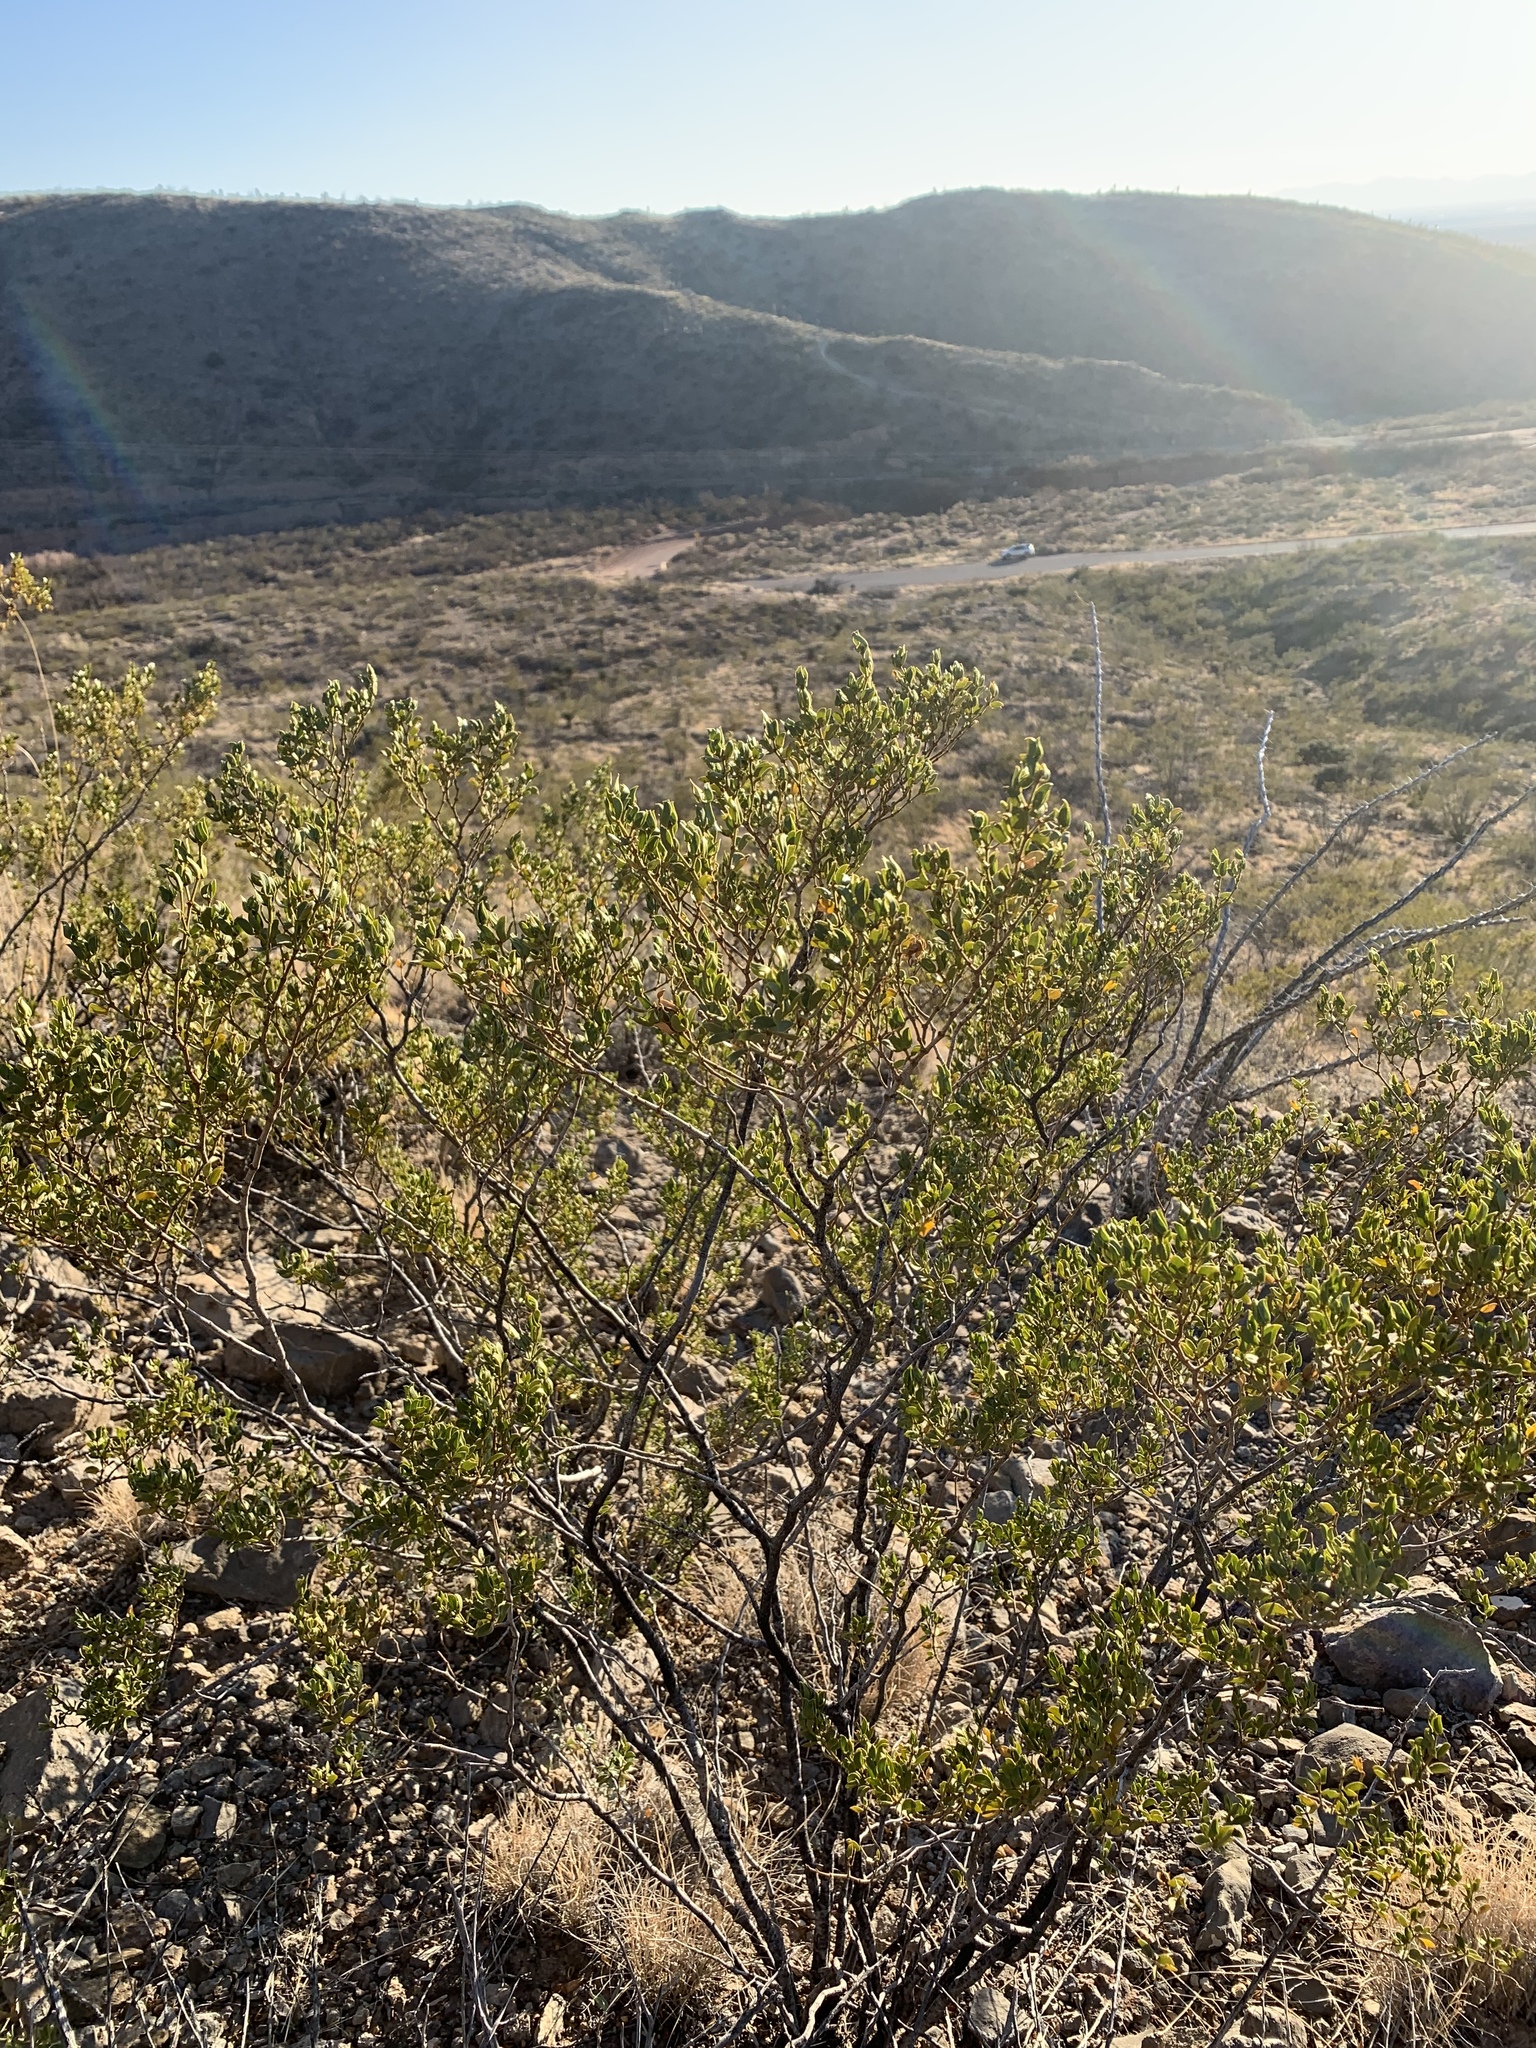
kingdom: Plantae
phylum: Tracheophyta
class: Magnoliopsida
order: Zygophyllales
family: Zygophyllaceae
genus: Larrea
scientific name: Larrea tridentata
